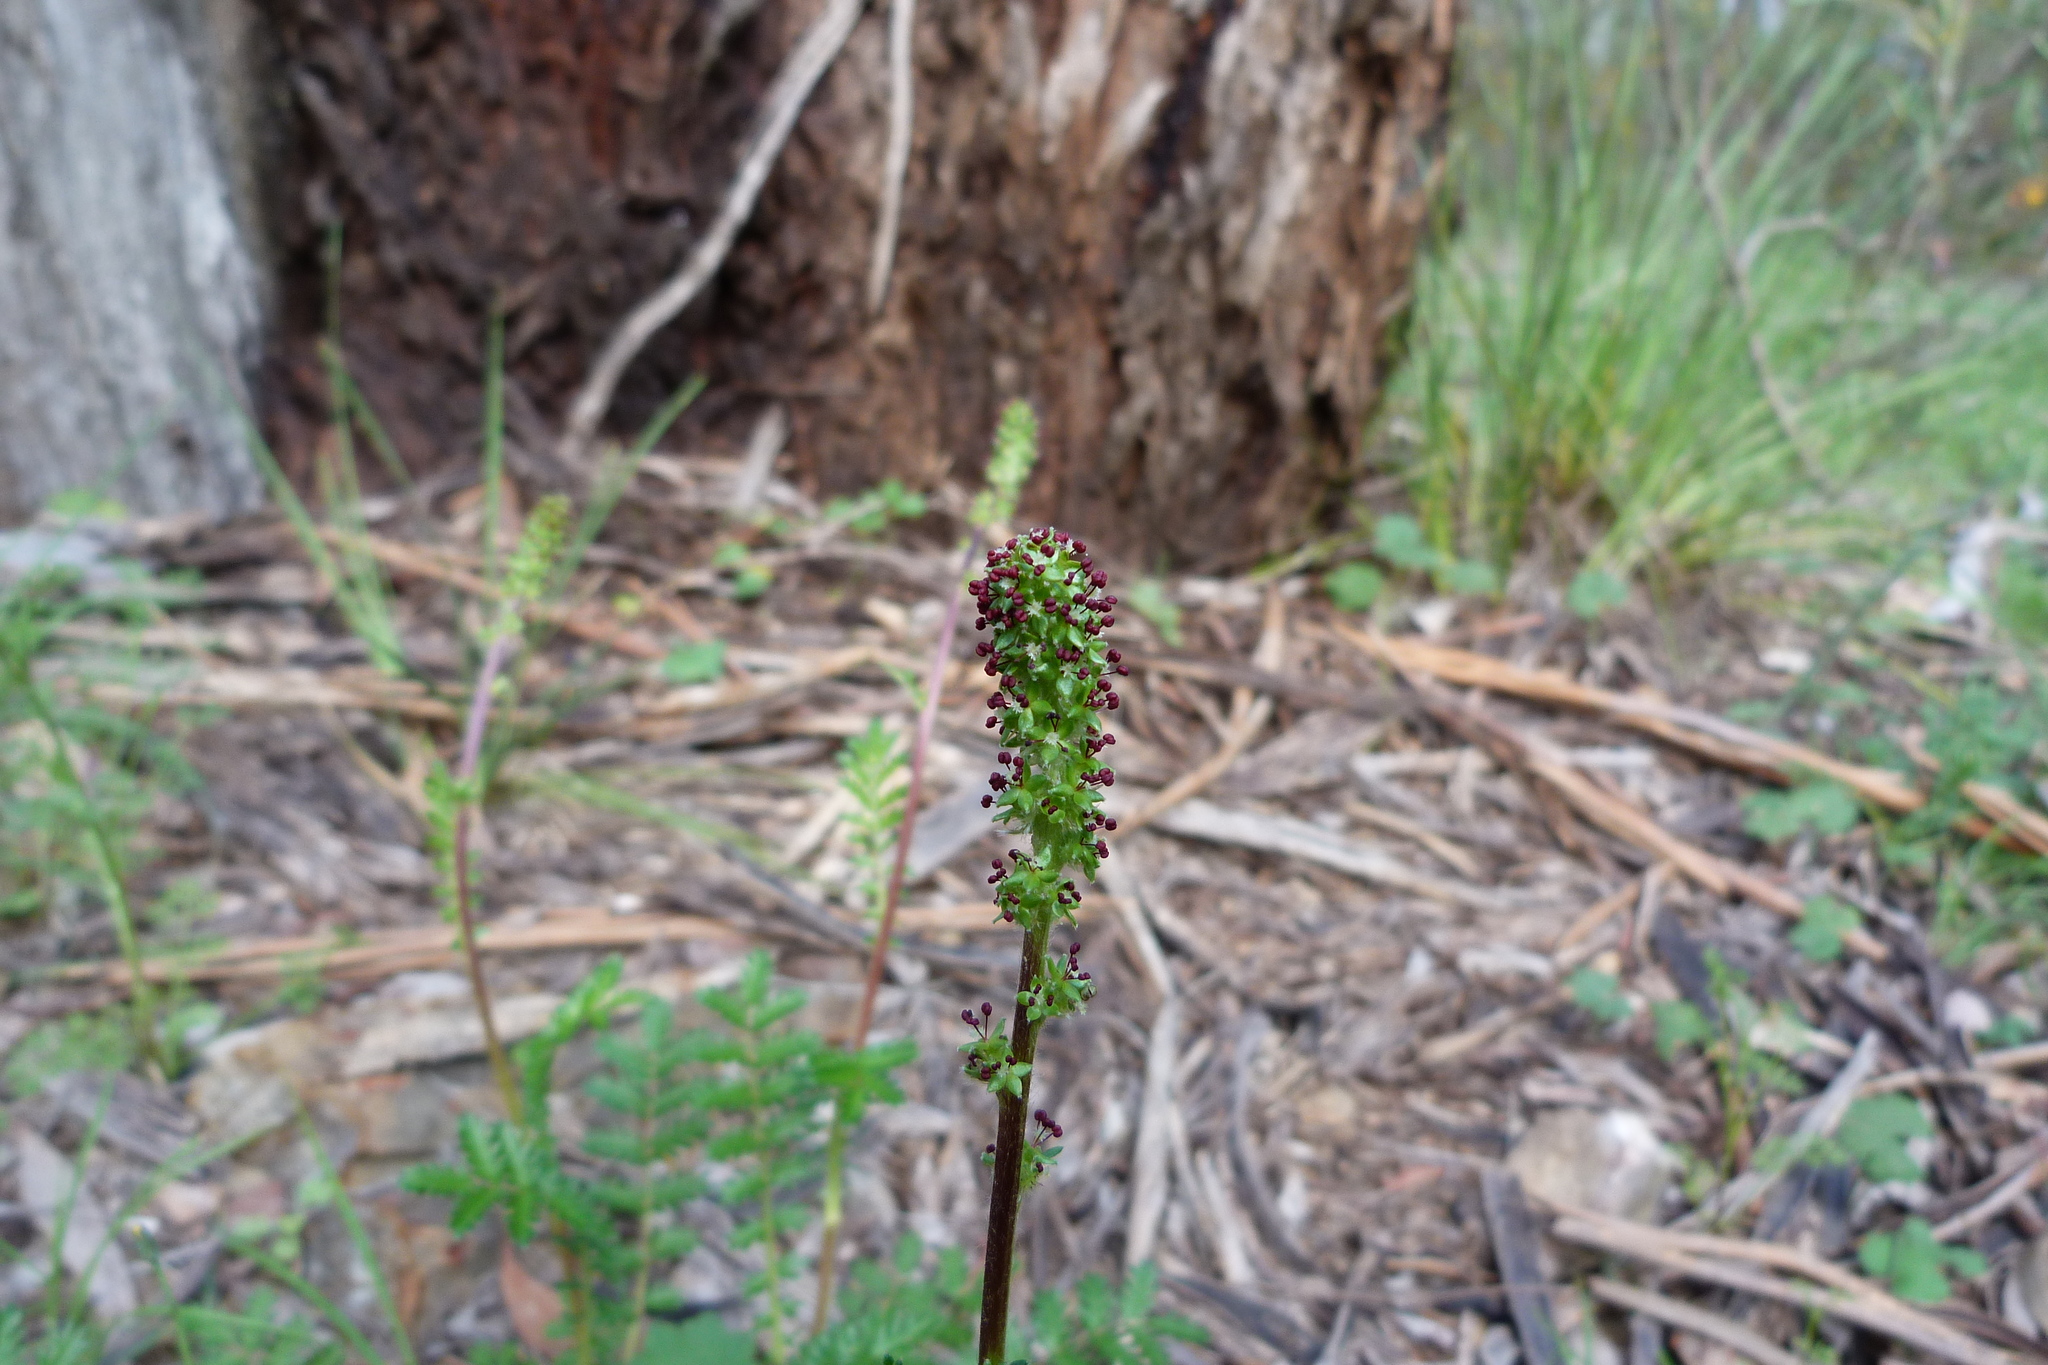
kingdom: Plantae
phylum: Tracheophyta
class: Magnoliopsida
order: Rosales
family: Rosaceae
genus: Acaena
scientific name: Acaena
